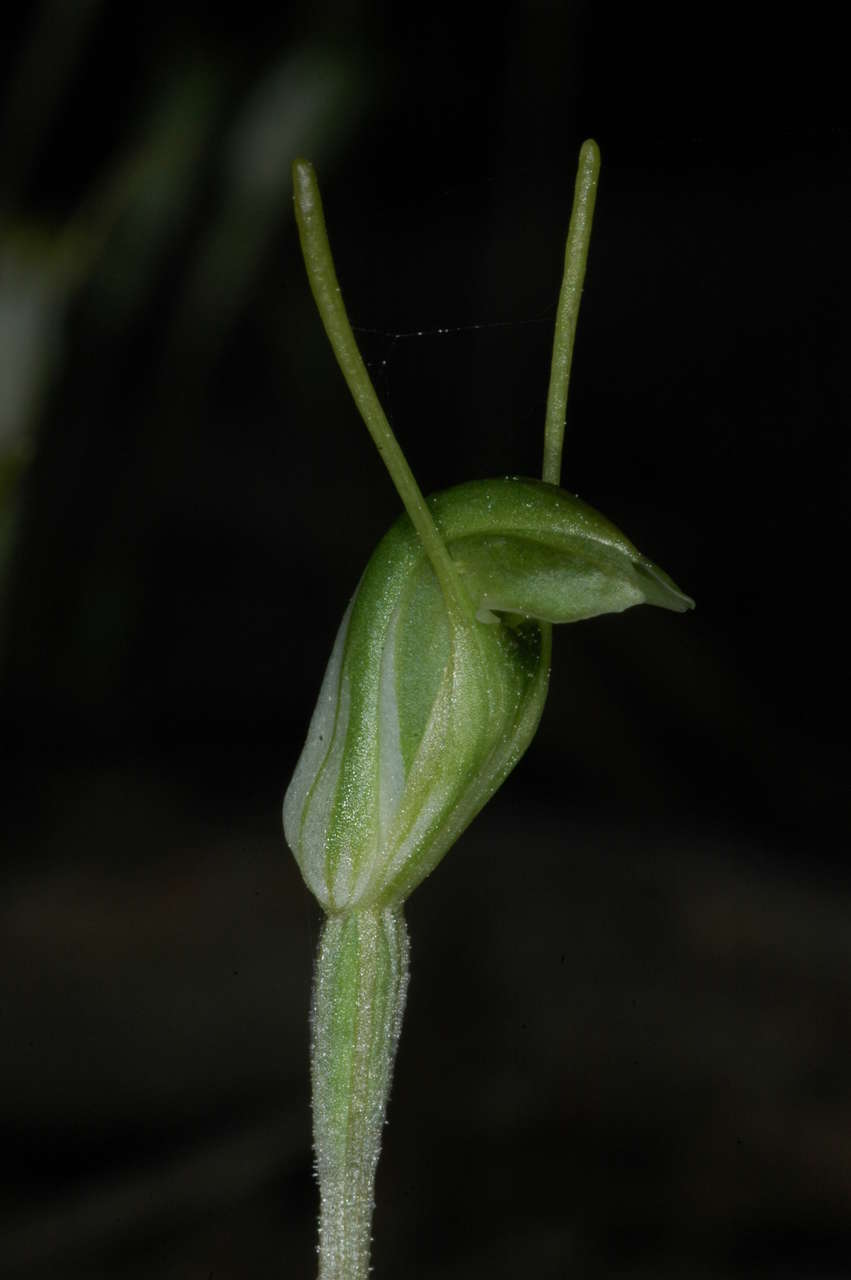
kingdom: Plantae
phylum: Tracheophyta
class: Liliopsida
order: Asparagales
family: Orchidaceae
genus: Pterostylis
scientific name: Pterostylis nana
